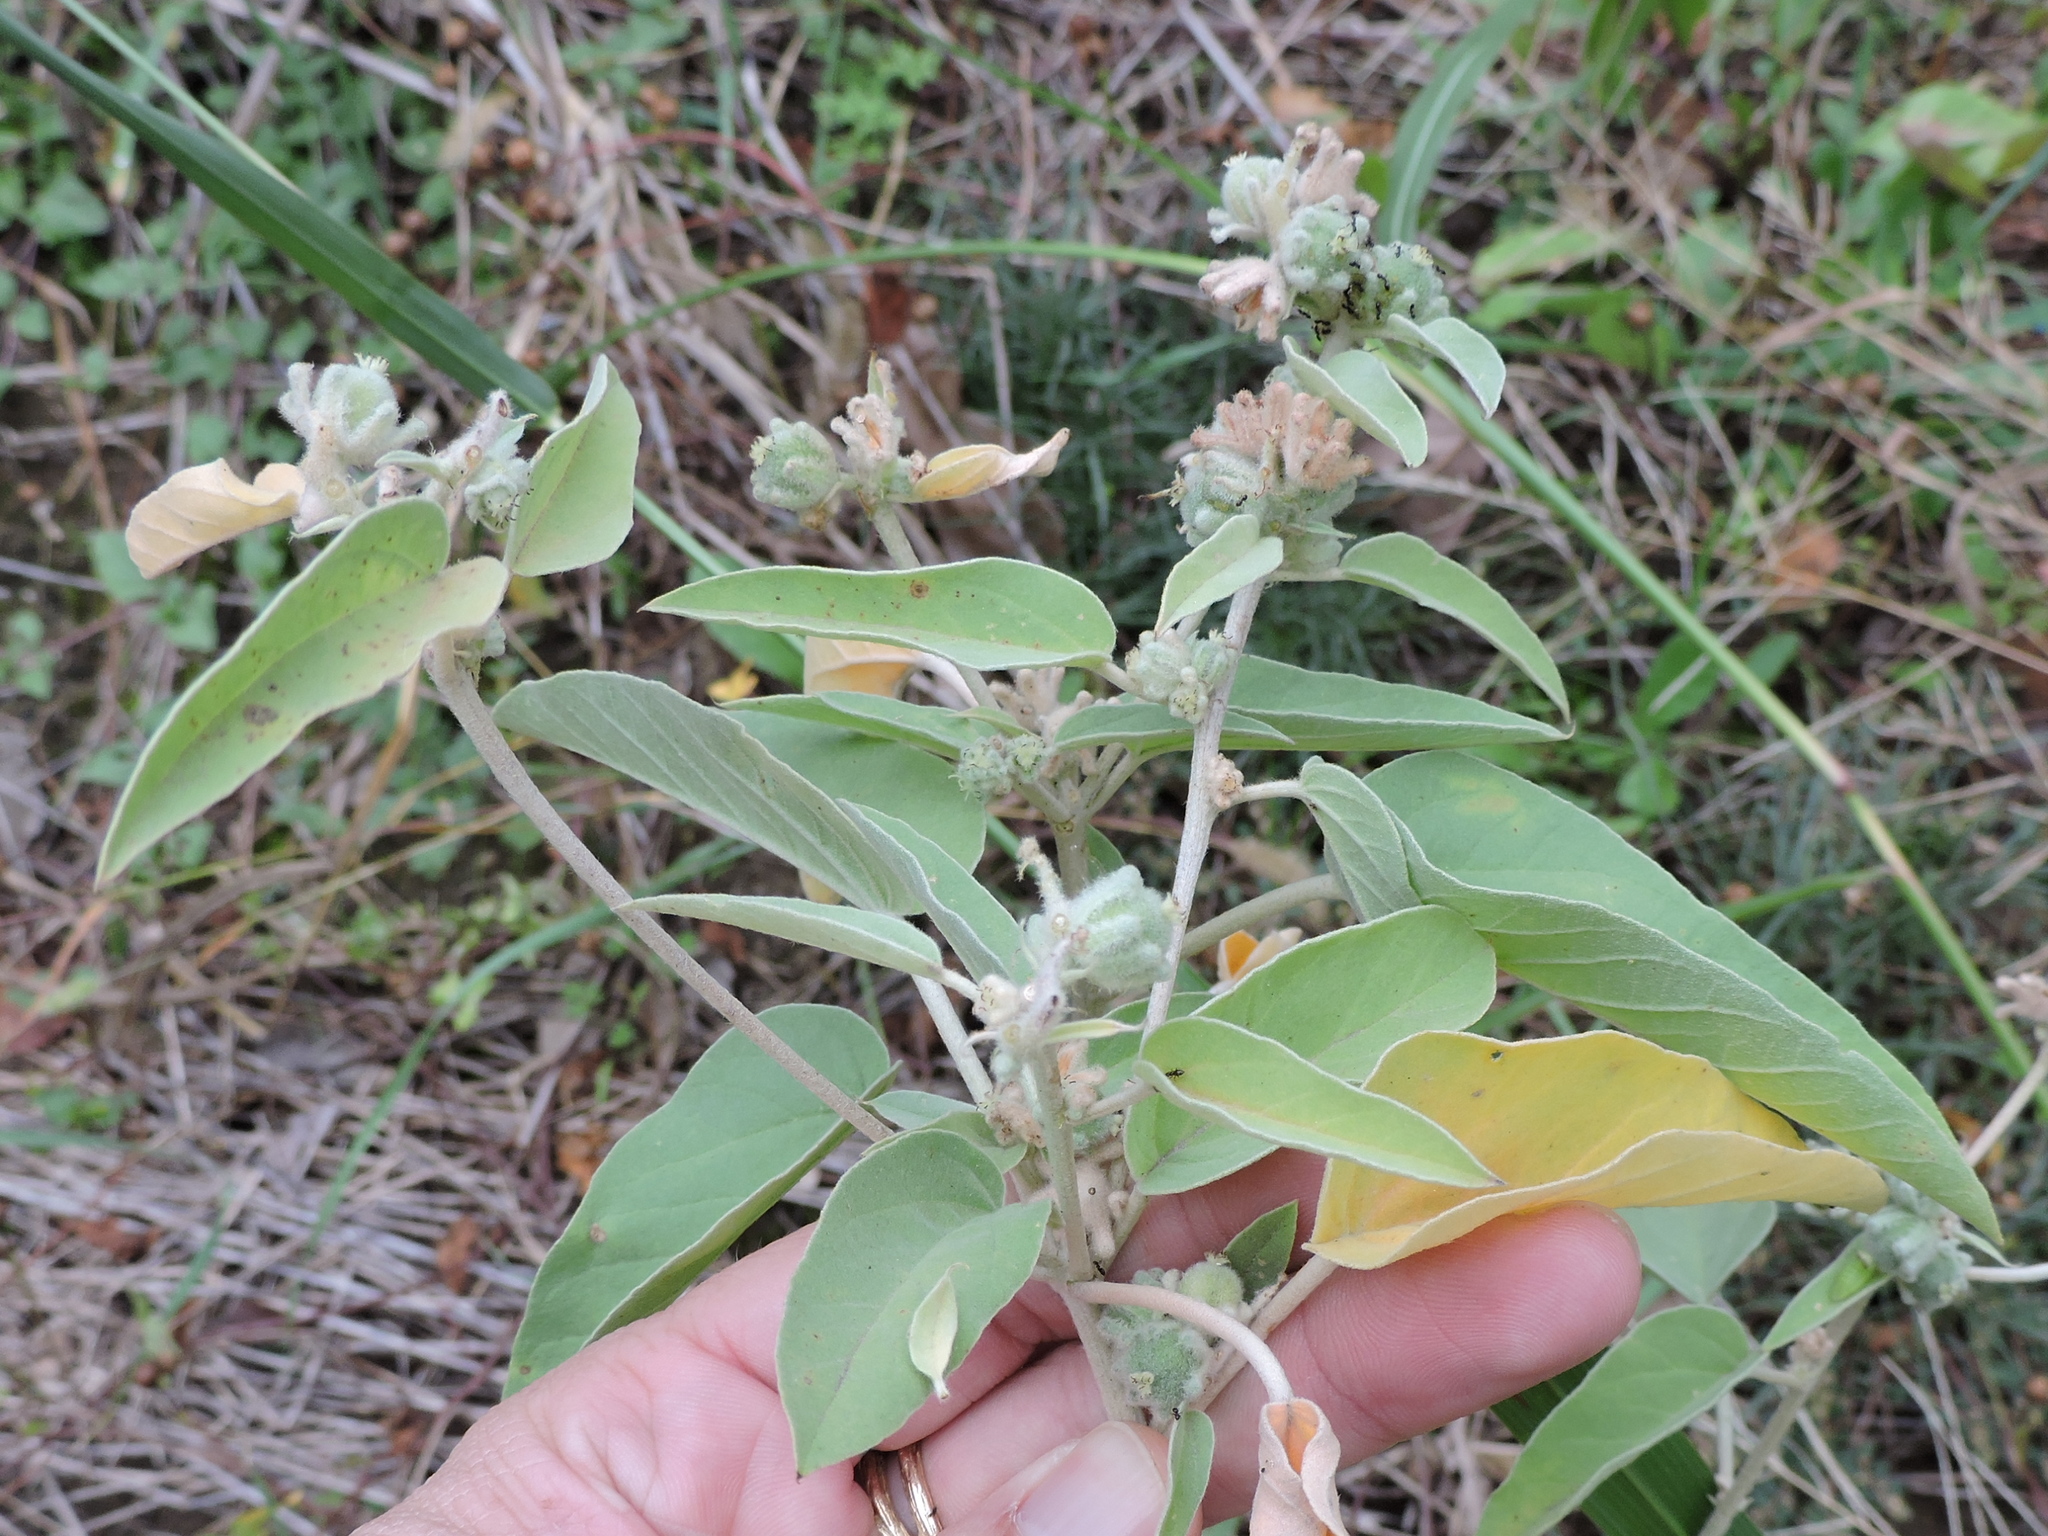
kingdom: Plantae
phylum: Tracheophyta
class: Magnoliopsida
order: Malpighiales
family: Euphorbiaceae
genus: Croton
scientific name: Croton lindheimeri
